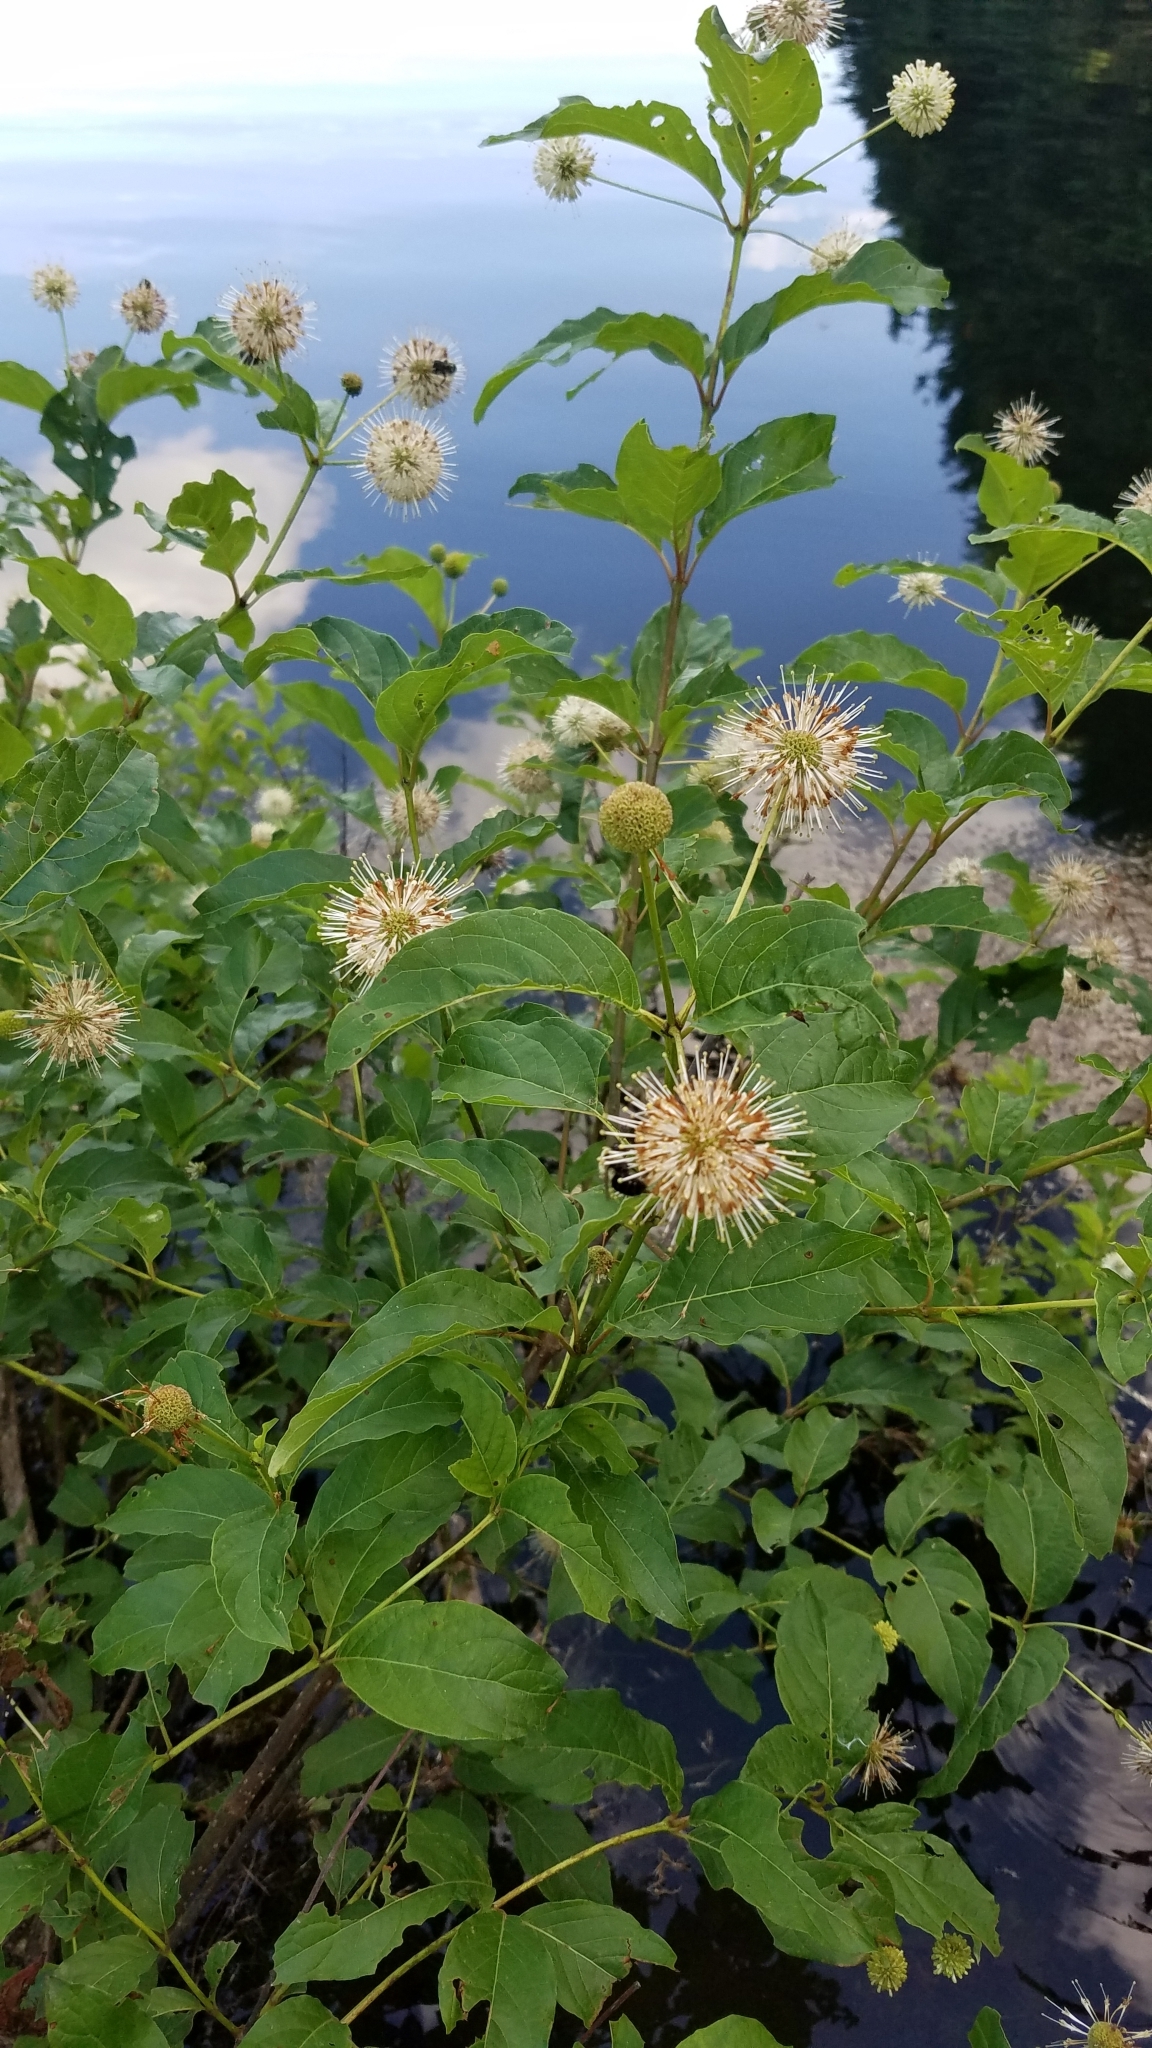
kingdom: Plantae
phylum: Tracheophyta
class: Magnoliopsida
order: Gentianales
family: Rubiaceae
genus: Cephalanthus
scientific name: Cephalanthus occidentalis
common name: Button-willow
